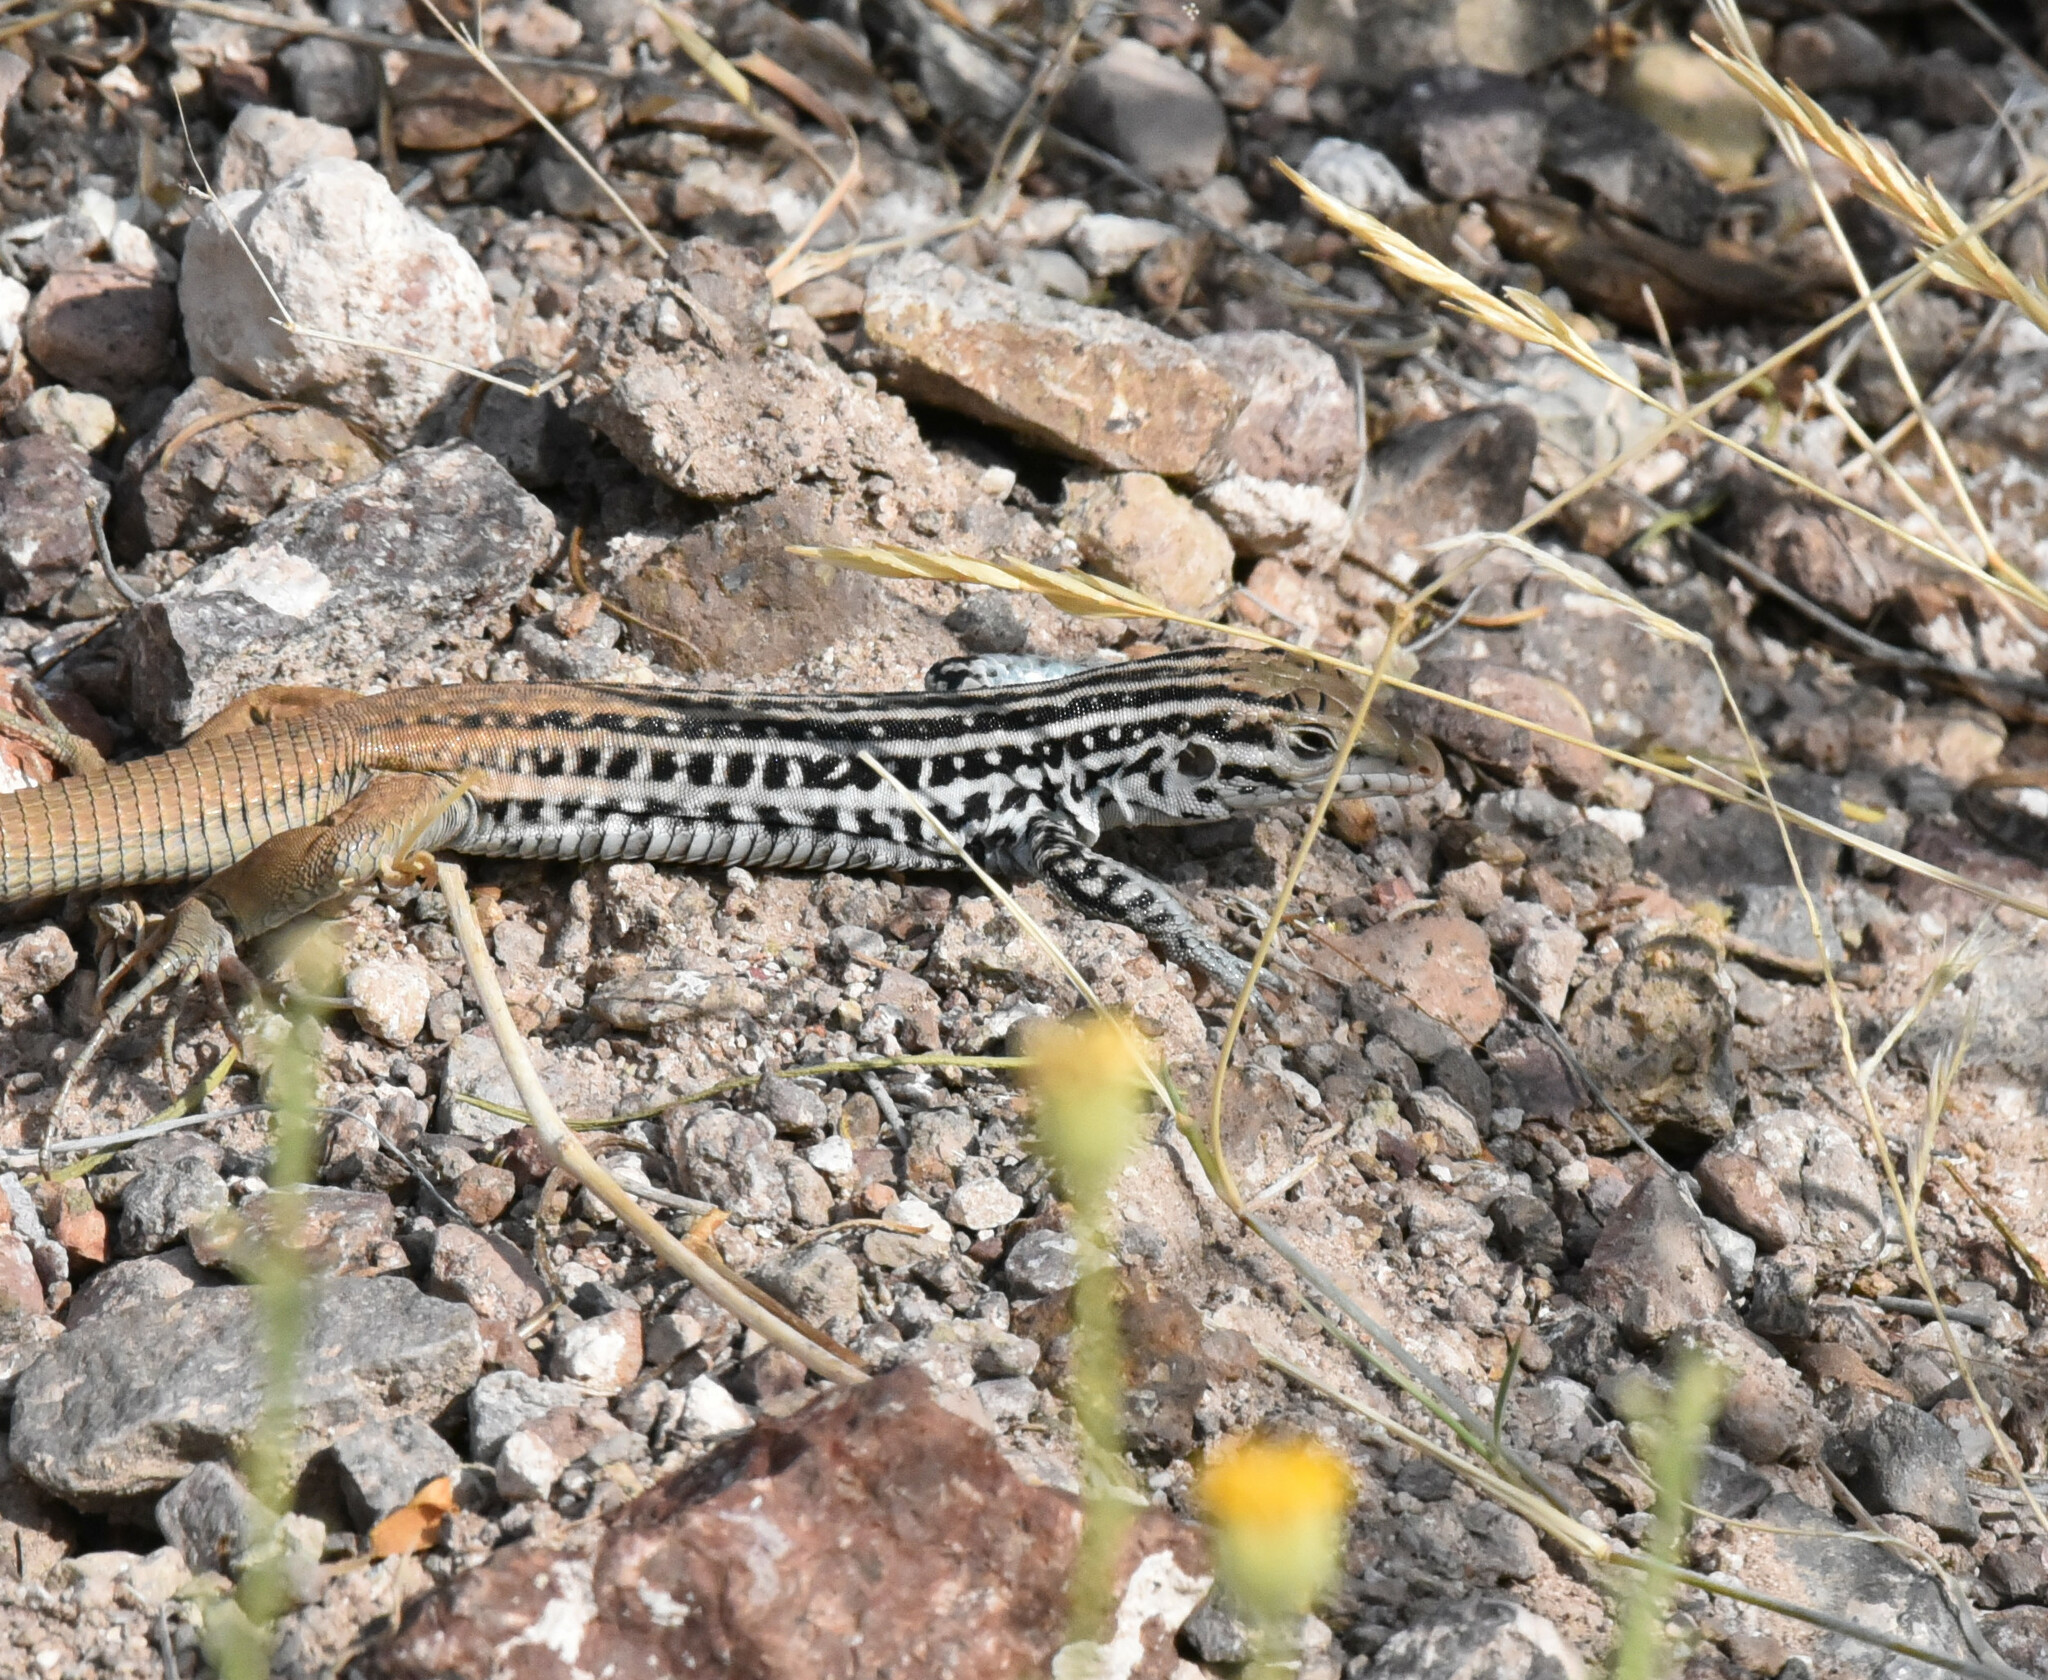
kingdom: Animalia
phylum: Chordata
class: Squamata
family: Teiidae
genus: Aspidoscelis
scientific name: Aspidoscelis scalaris
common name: Rusty-rumped whiptail
